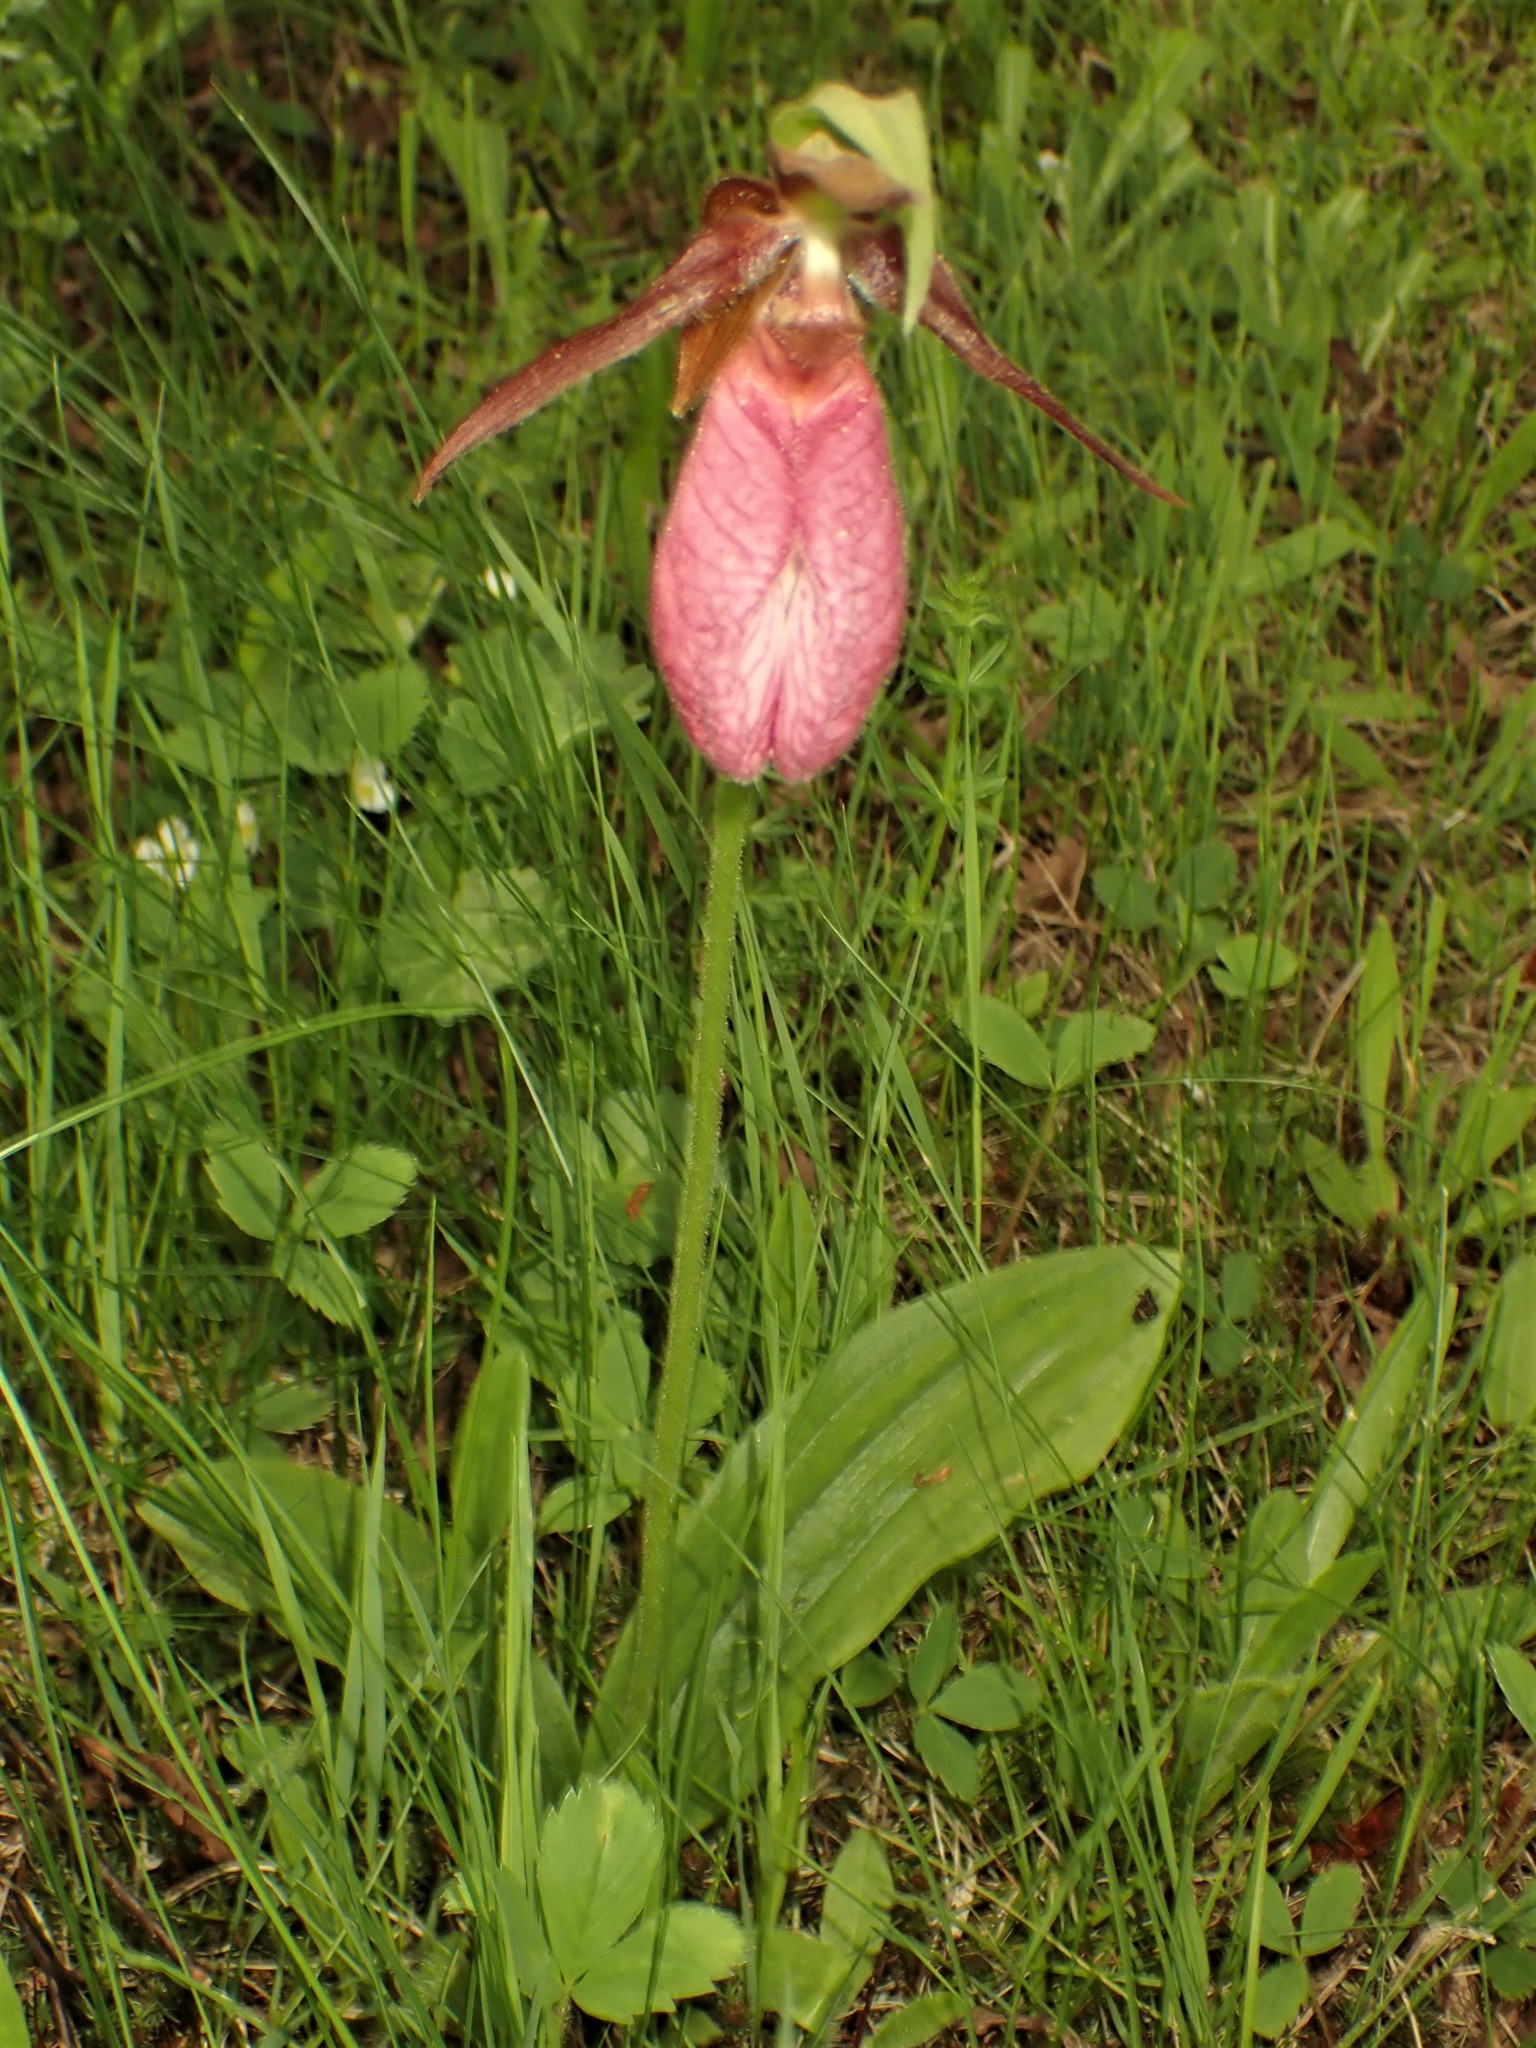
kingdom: Plantae
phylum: Tracheophyta
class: Liliopsida
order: Asparagales
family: Orchidaceae
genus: Cypripedium
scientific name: Cypripedium acaule
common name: Pink lady's-slipper
